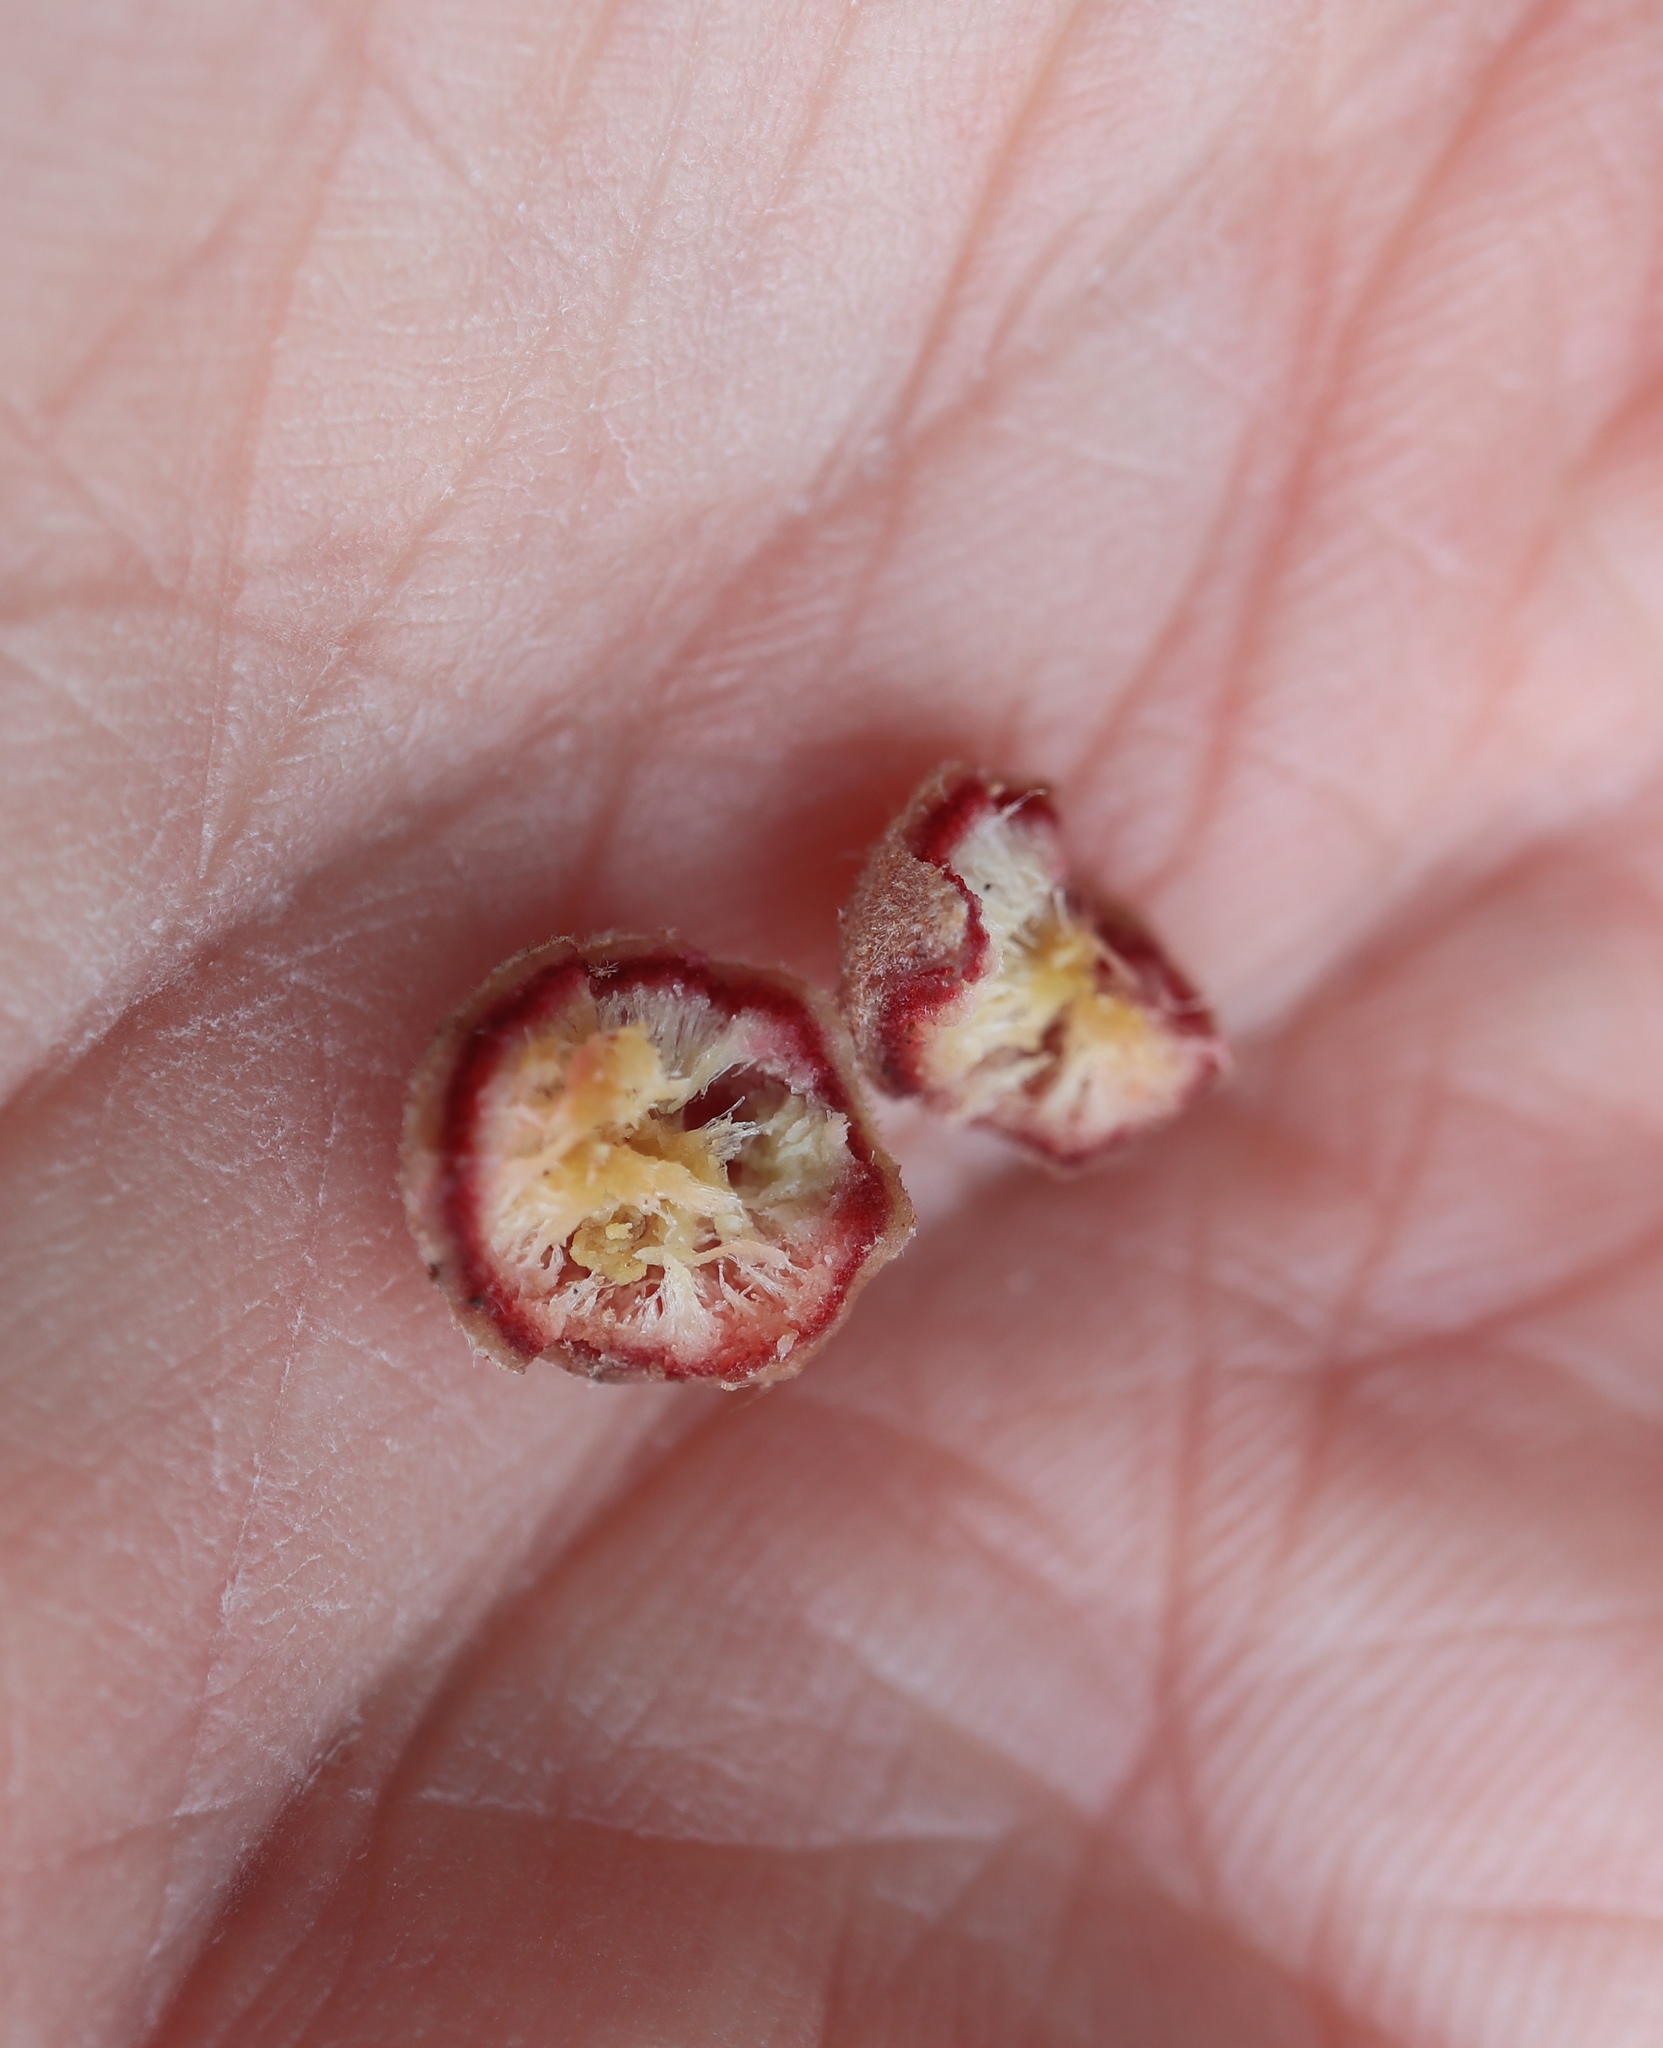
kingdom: Animalia
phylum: Arthropoda
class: Insecta
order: Hymenoptera
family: Cynipidae
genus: Philonix
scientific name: Philonix fulvicollis
